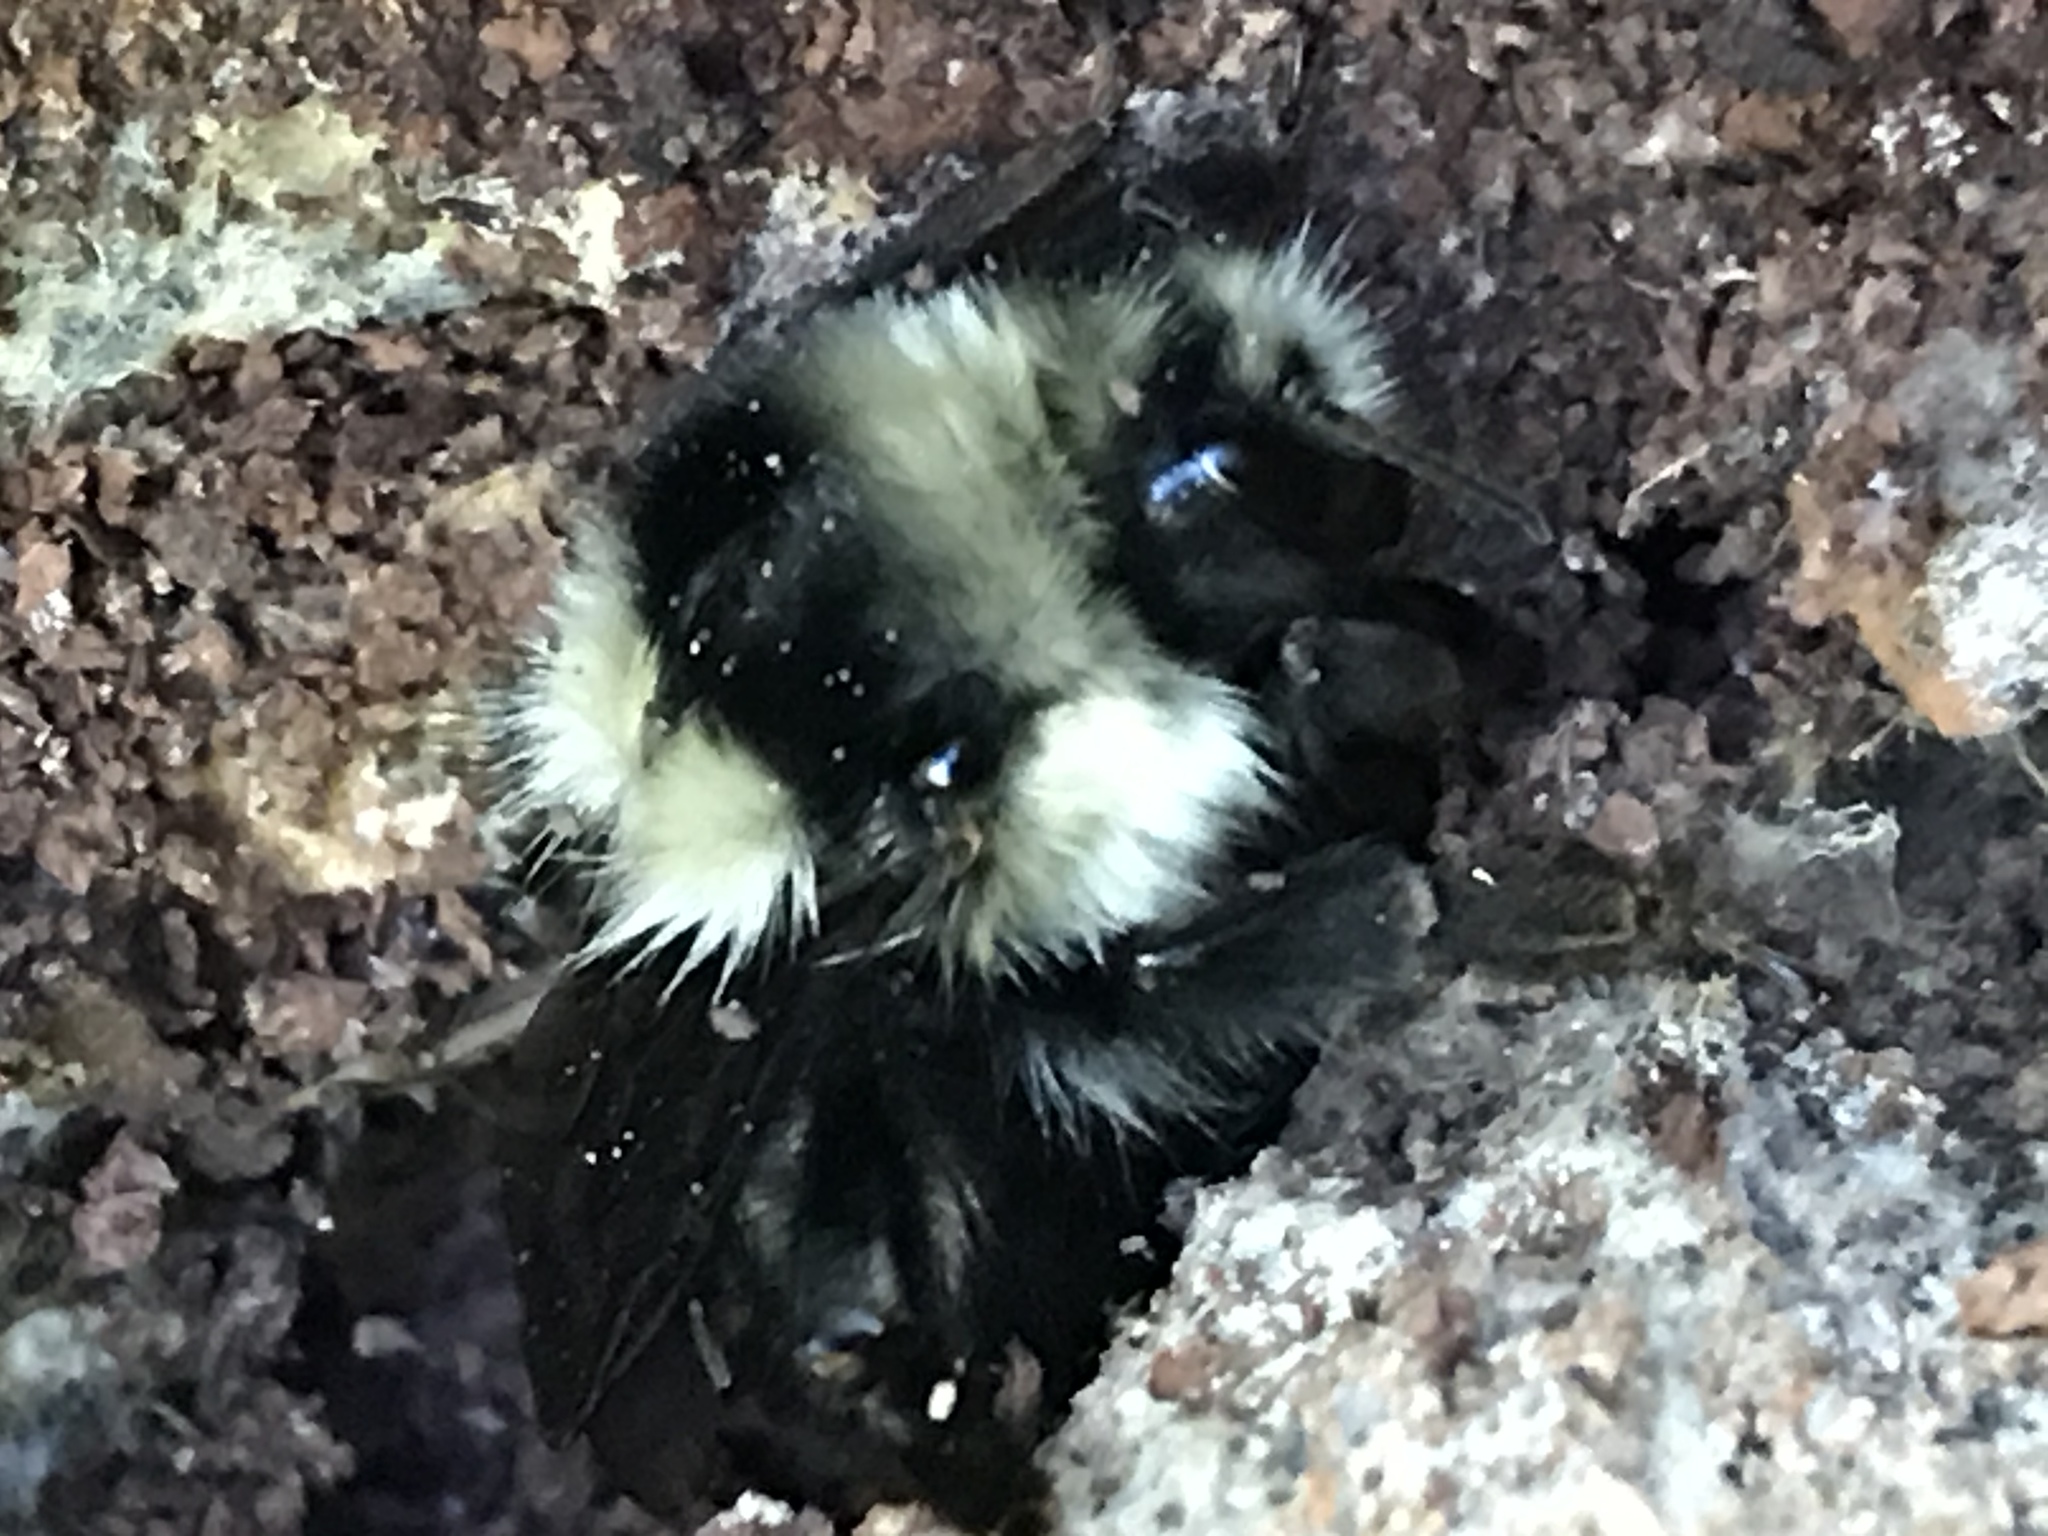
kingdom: Animalia
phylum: Arthropoda
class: Insecta
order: Hymenoptera
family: Apidae
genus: Bombus
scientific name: Bombus melanopygus
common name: Black tail bumble bee
